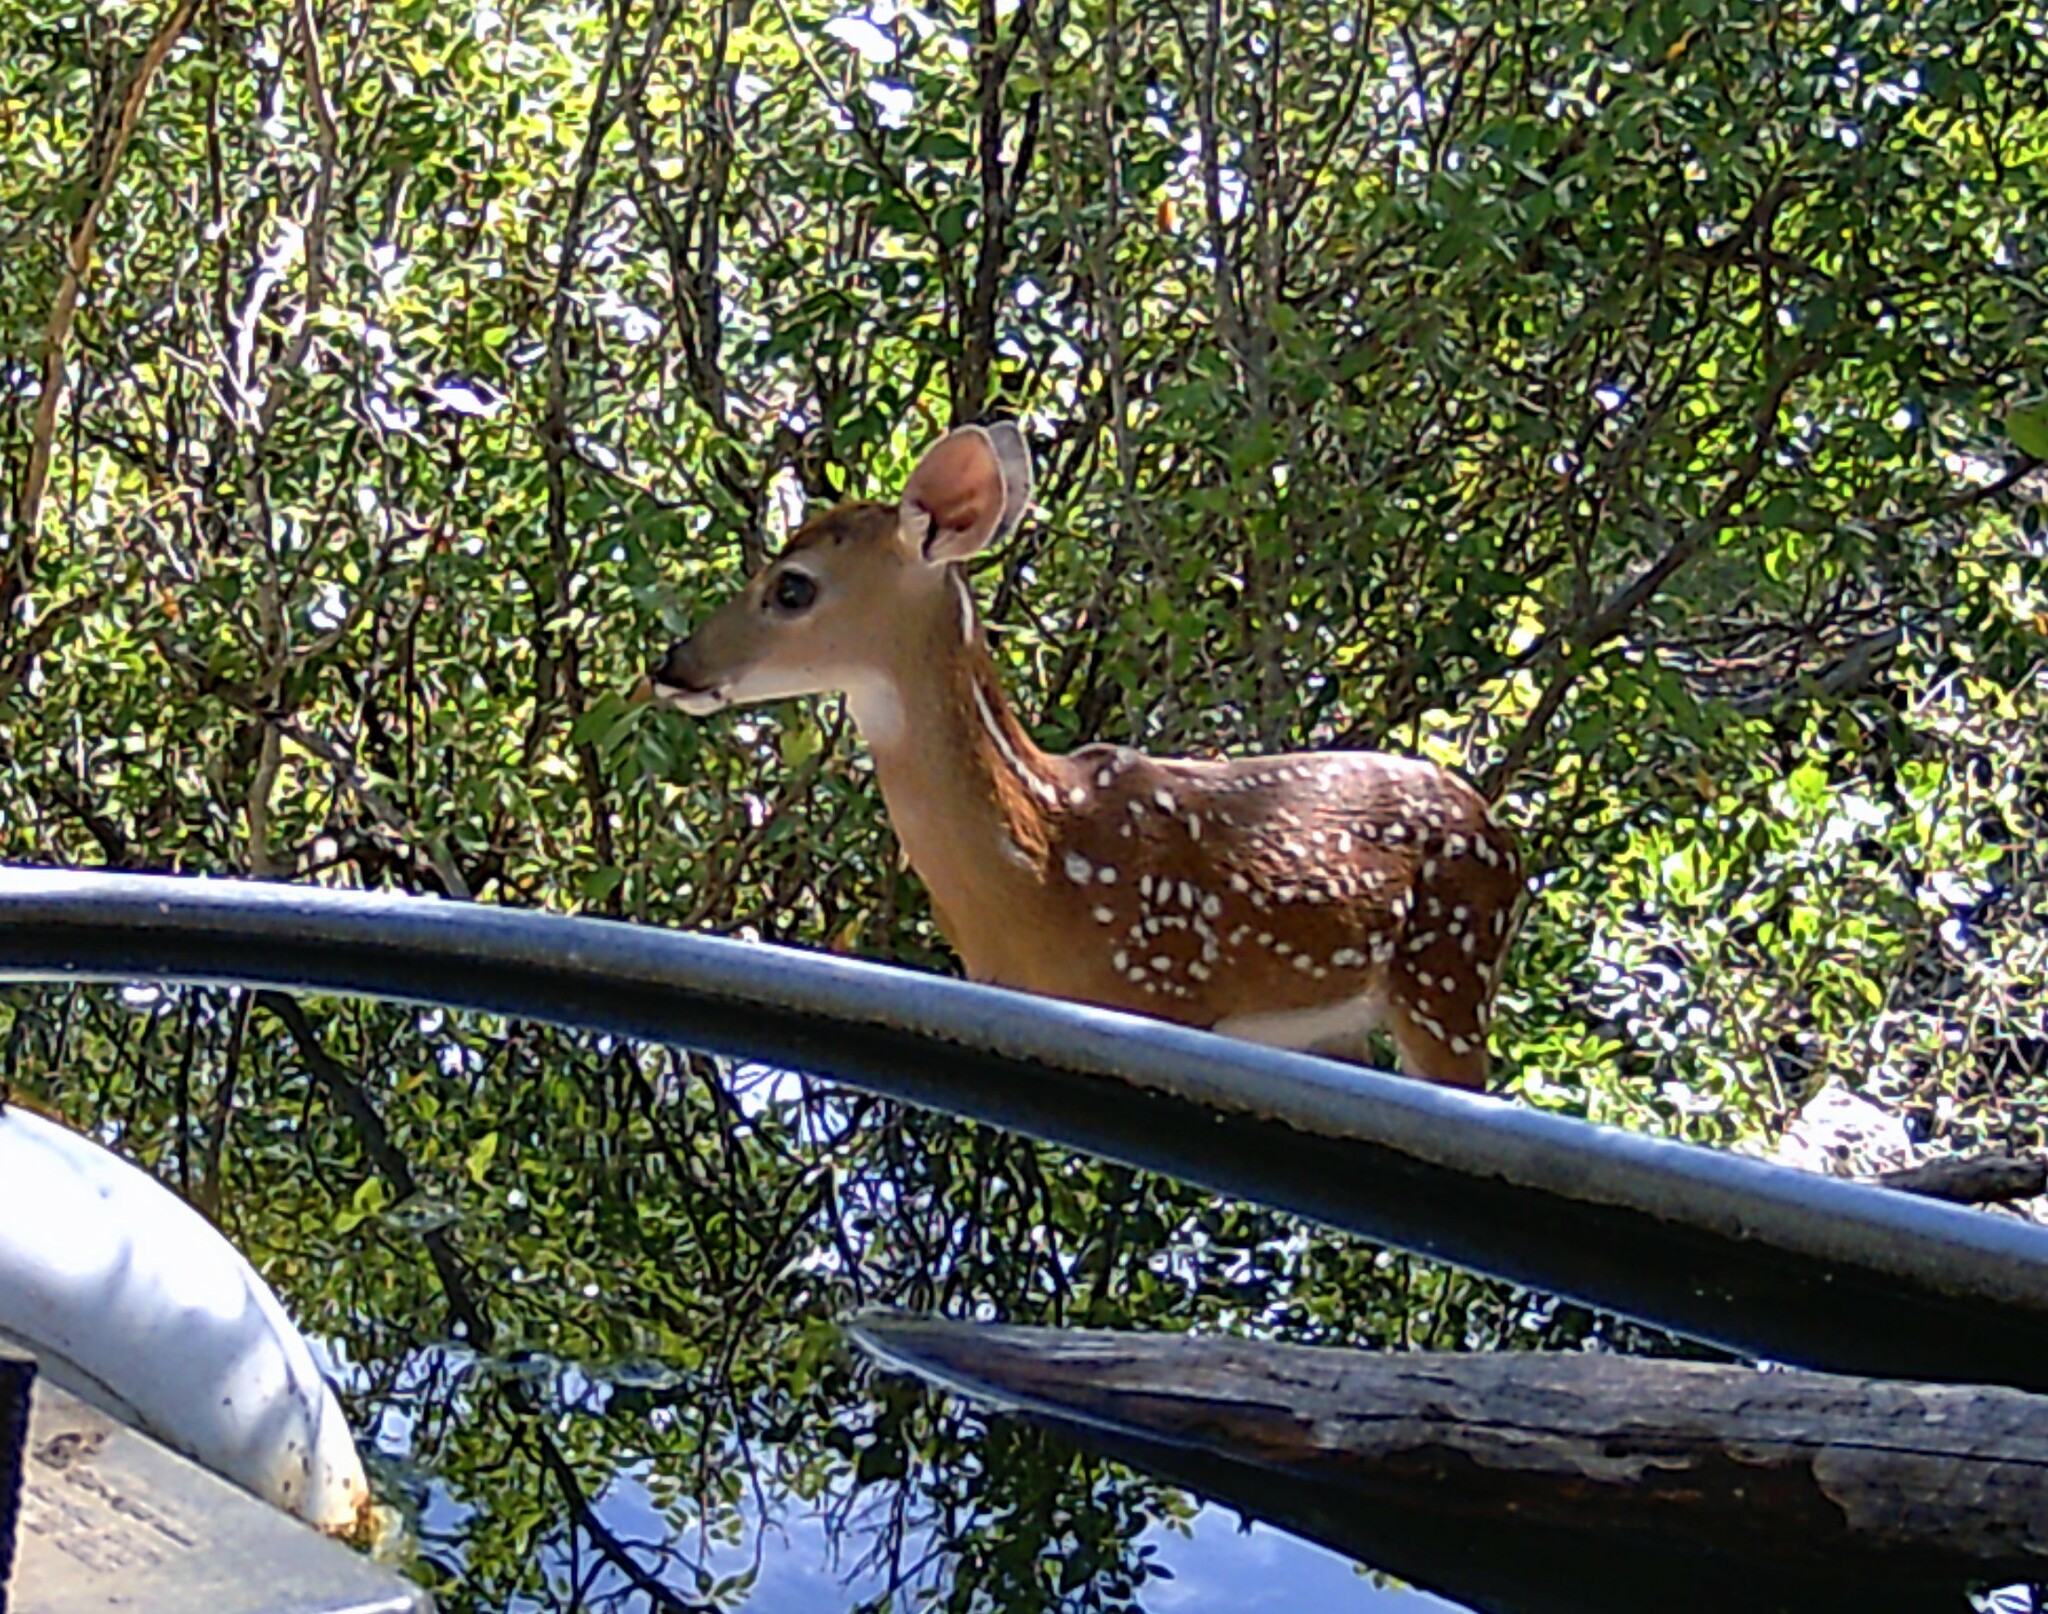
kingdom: Animalia
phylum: Chordata
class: Mammalia
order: Artiodactyla
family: Cervidae
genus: Odocoileus
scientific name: Odocoileus virginianus
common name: White-tailed deer
